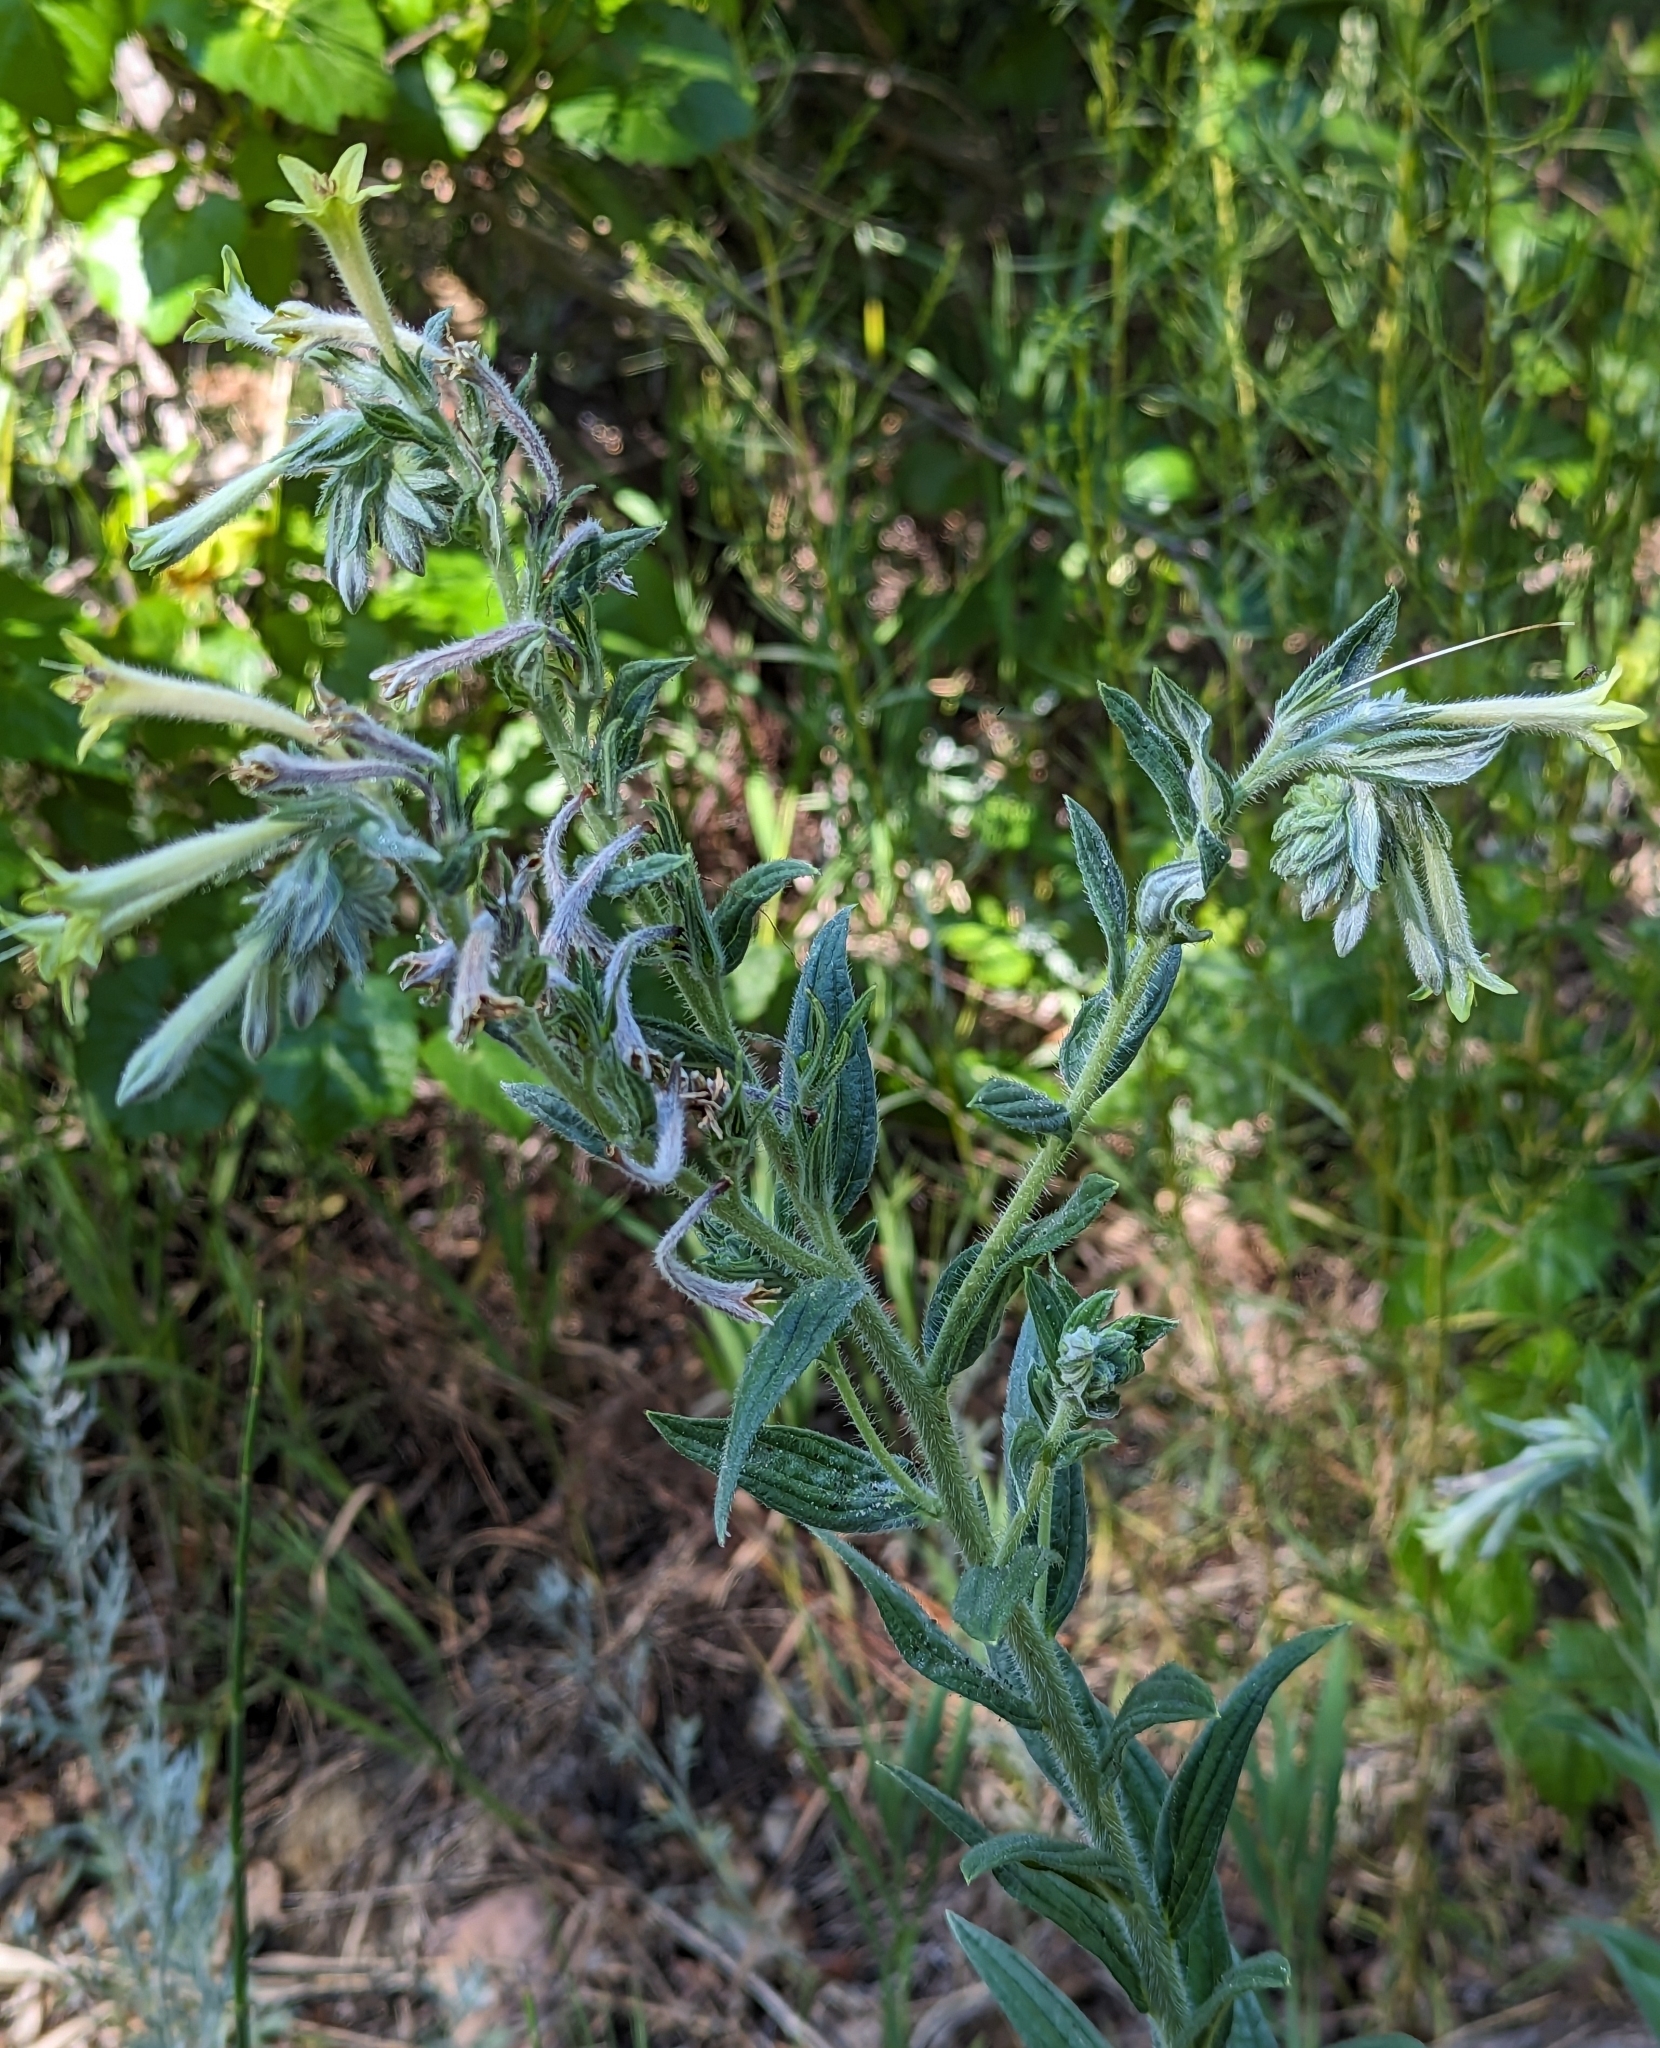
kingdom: Plantae
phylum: Tracheophyta
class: Magnoliopsida
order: Boraginales
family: Boraginaceae
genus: Lithospermum
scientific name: Lithospermum thurberi
